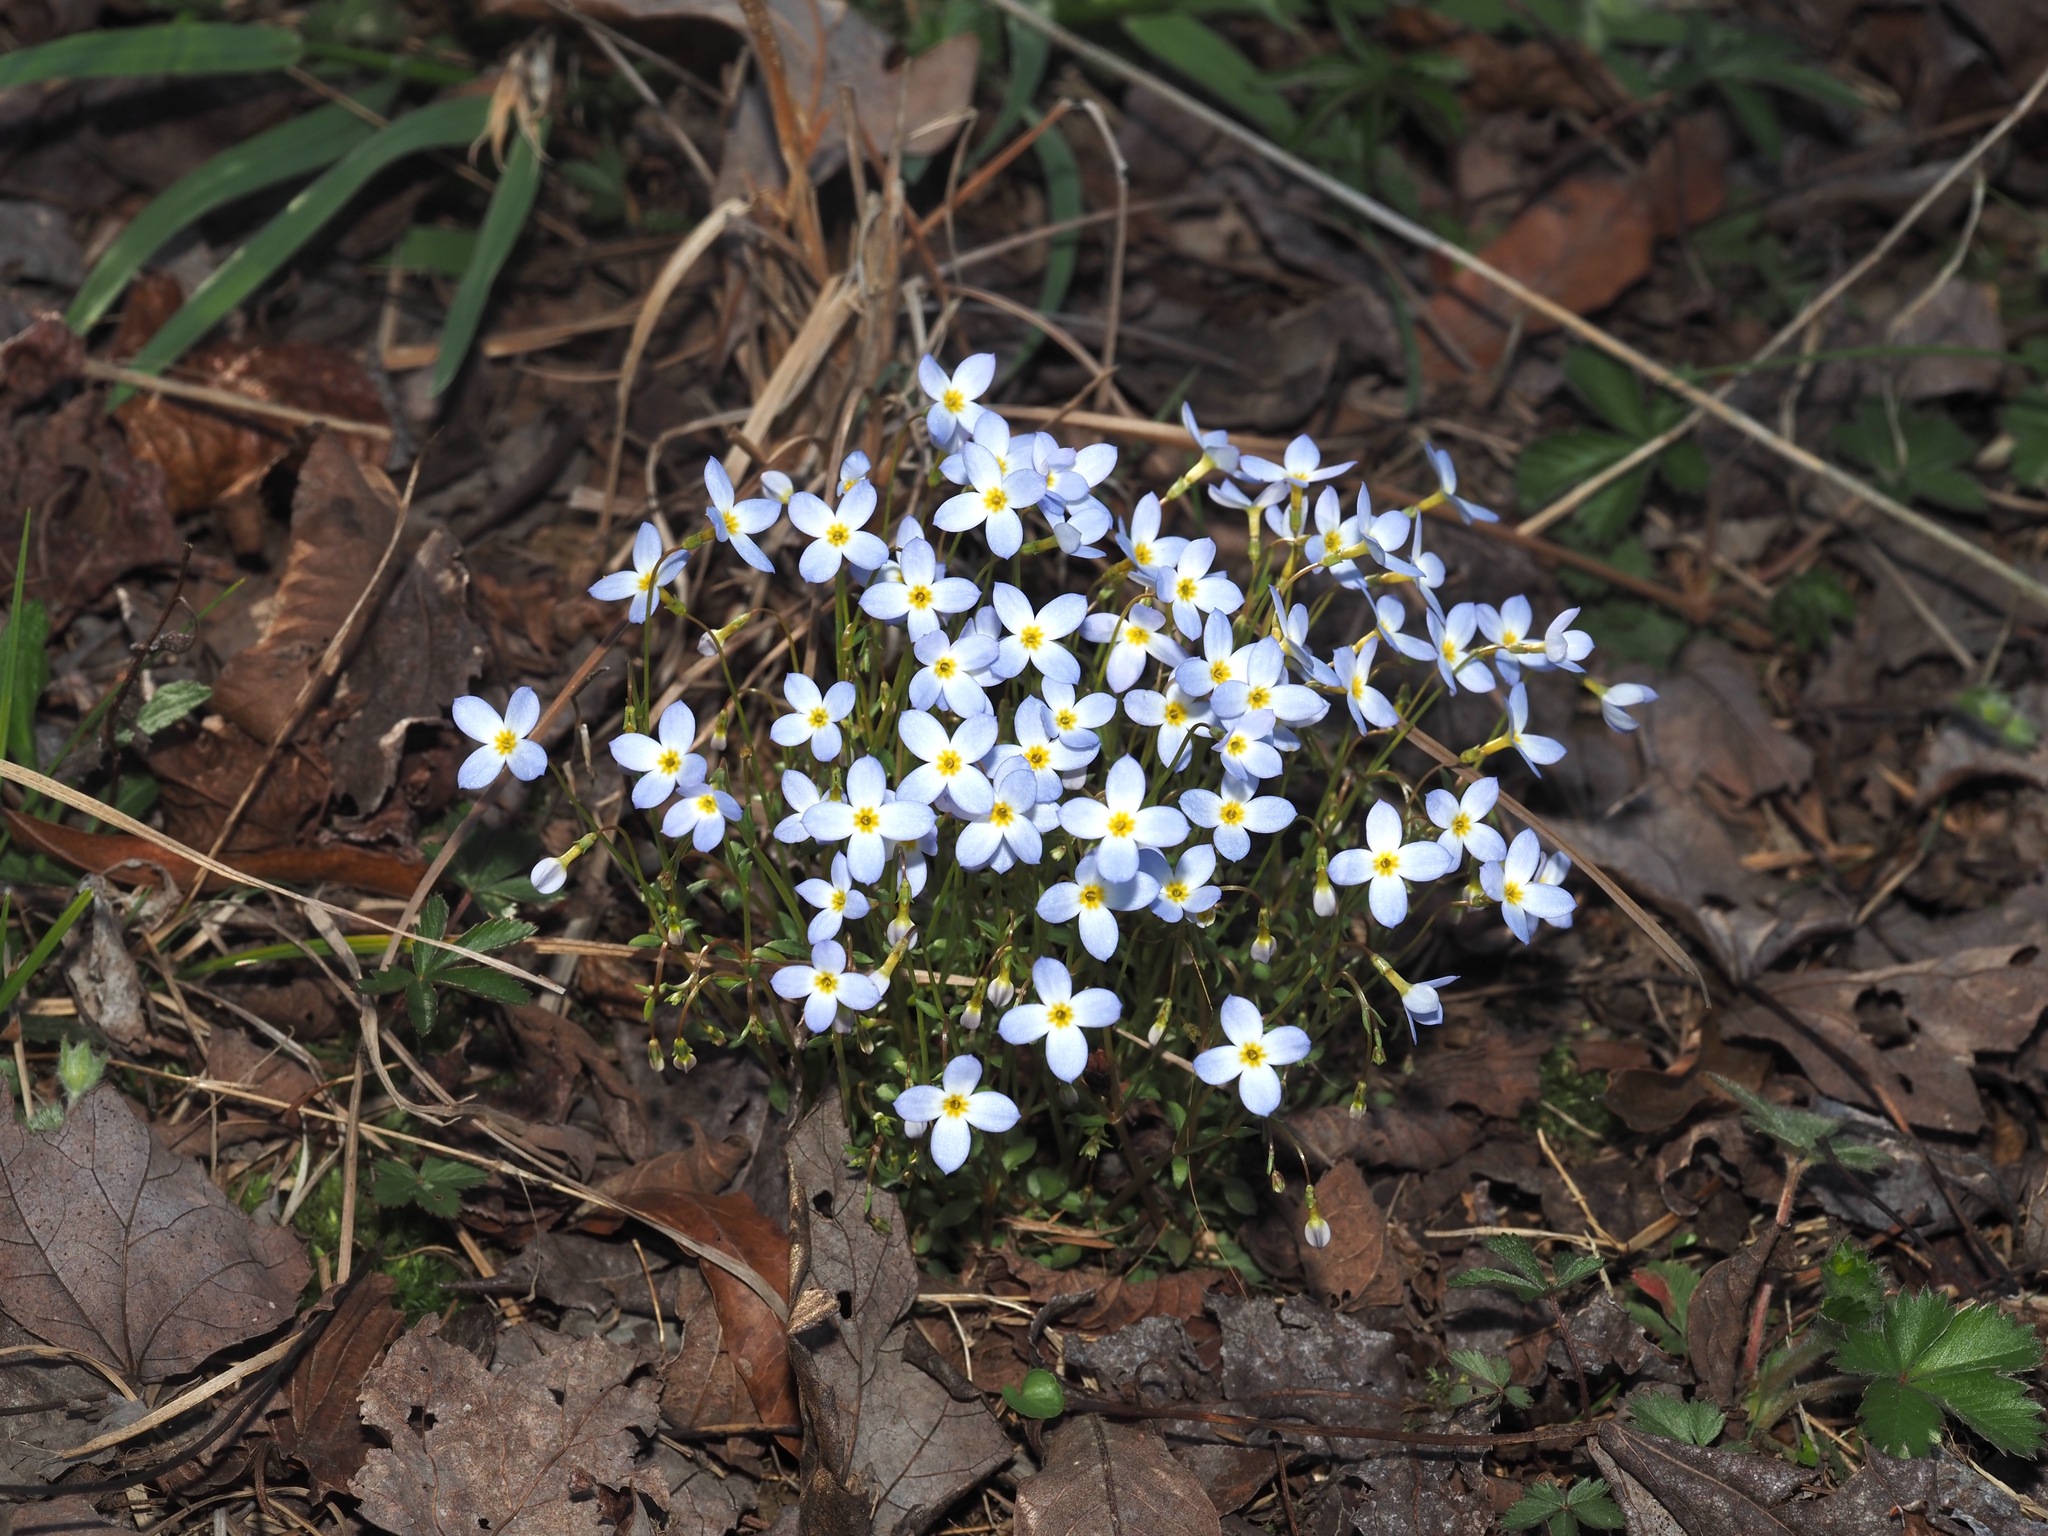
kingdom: Plantae
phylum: Tracheophyta
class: Magnoliopsida
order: Gentianales
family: Rubiaceae
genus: Houstonia
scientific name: Houstonia caerulea
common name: Bluets
